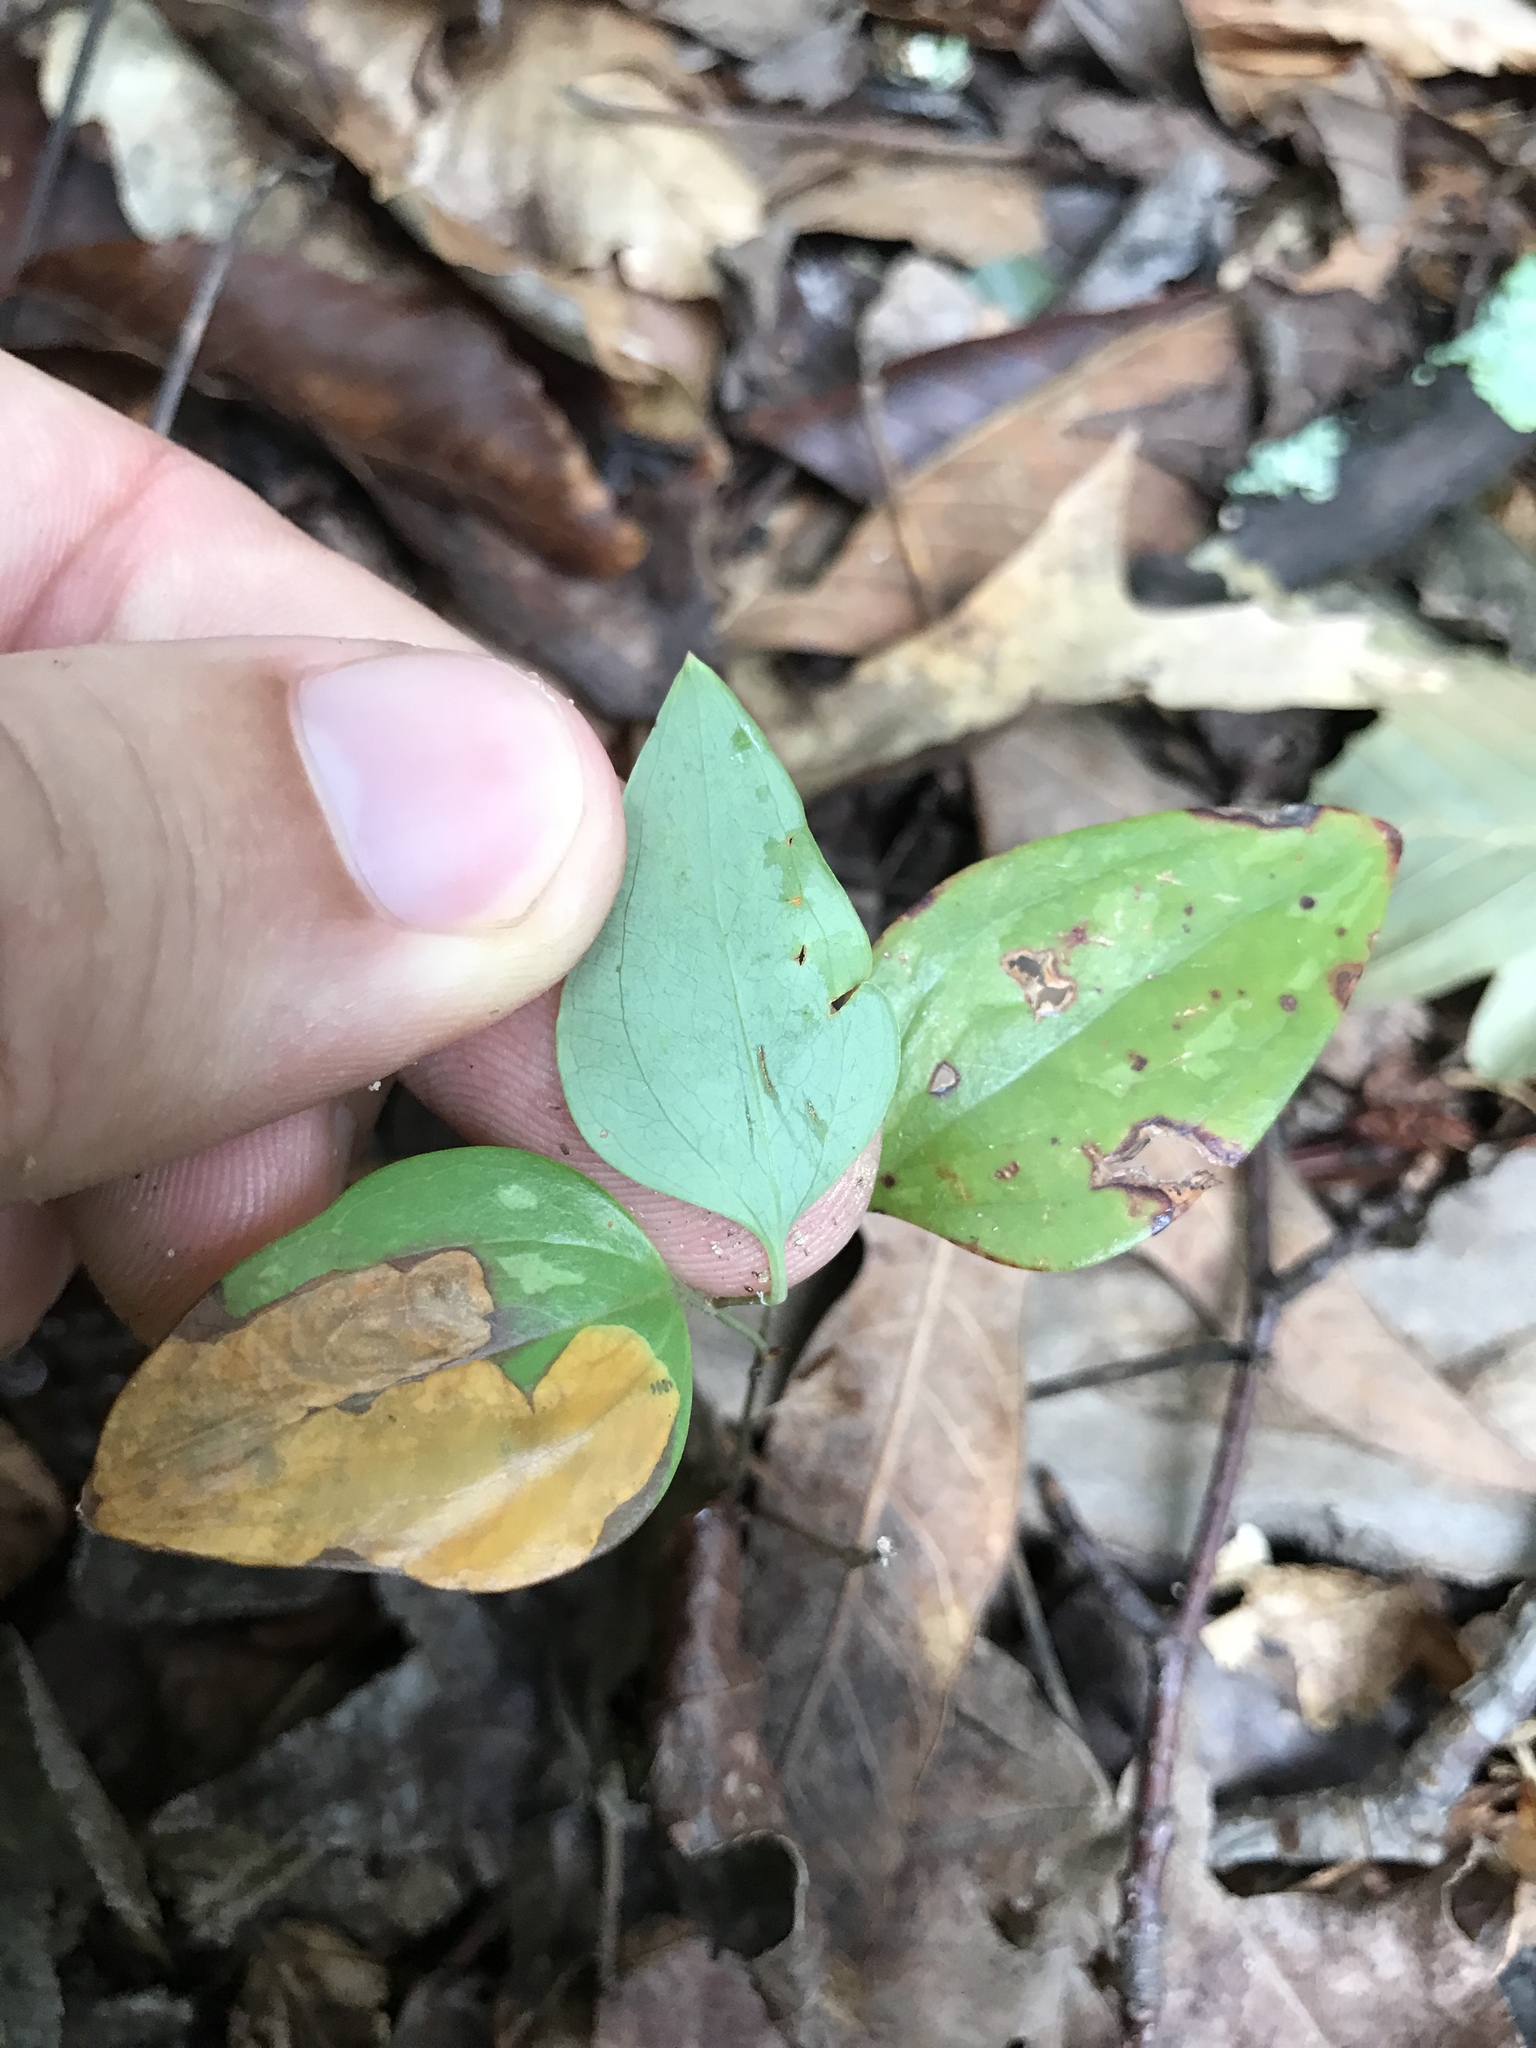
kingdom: Plantae
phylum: Tracheophyta
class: Liliopsida
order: Liliales
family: Smilacaceae
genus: Smilax
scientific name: Smilax glauca
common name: Cat greenbrier
